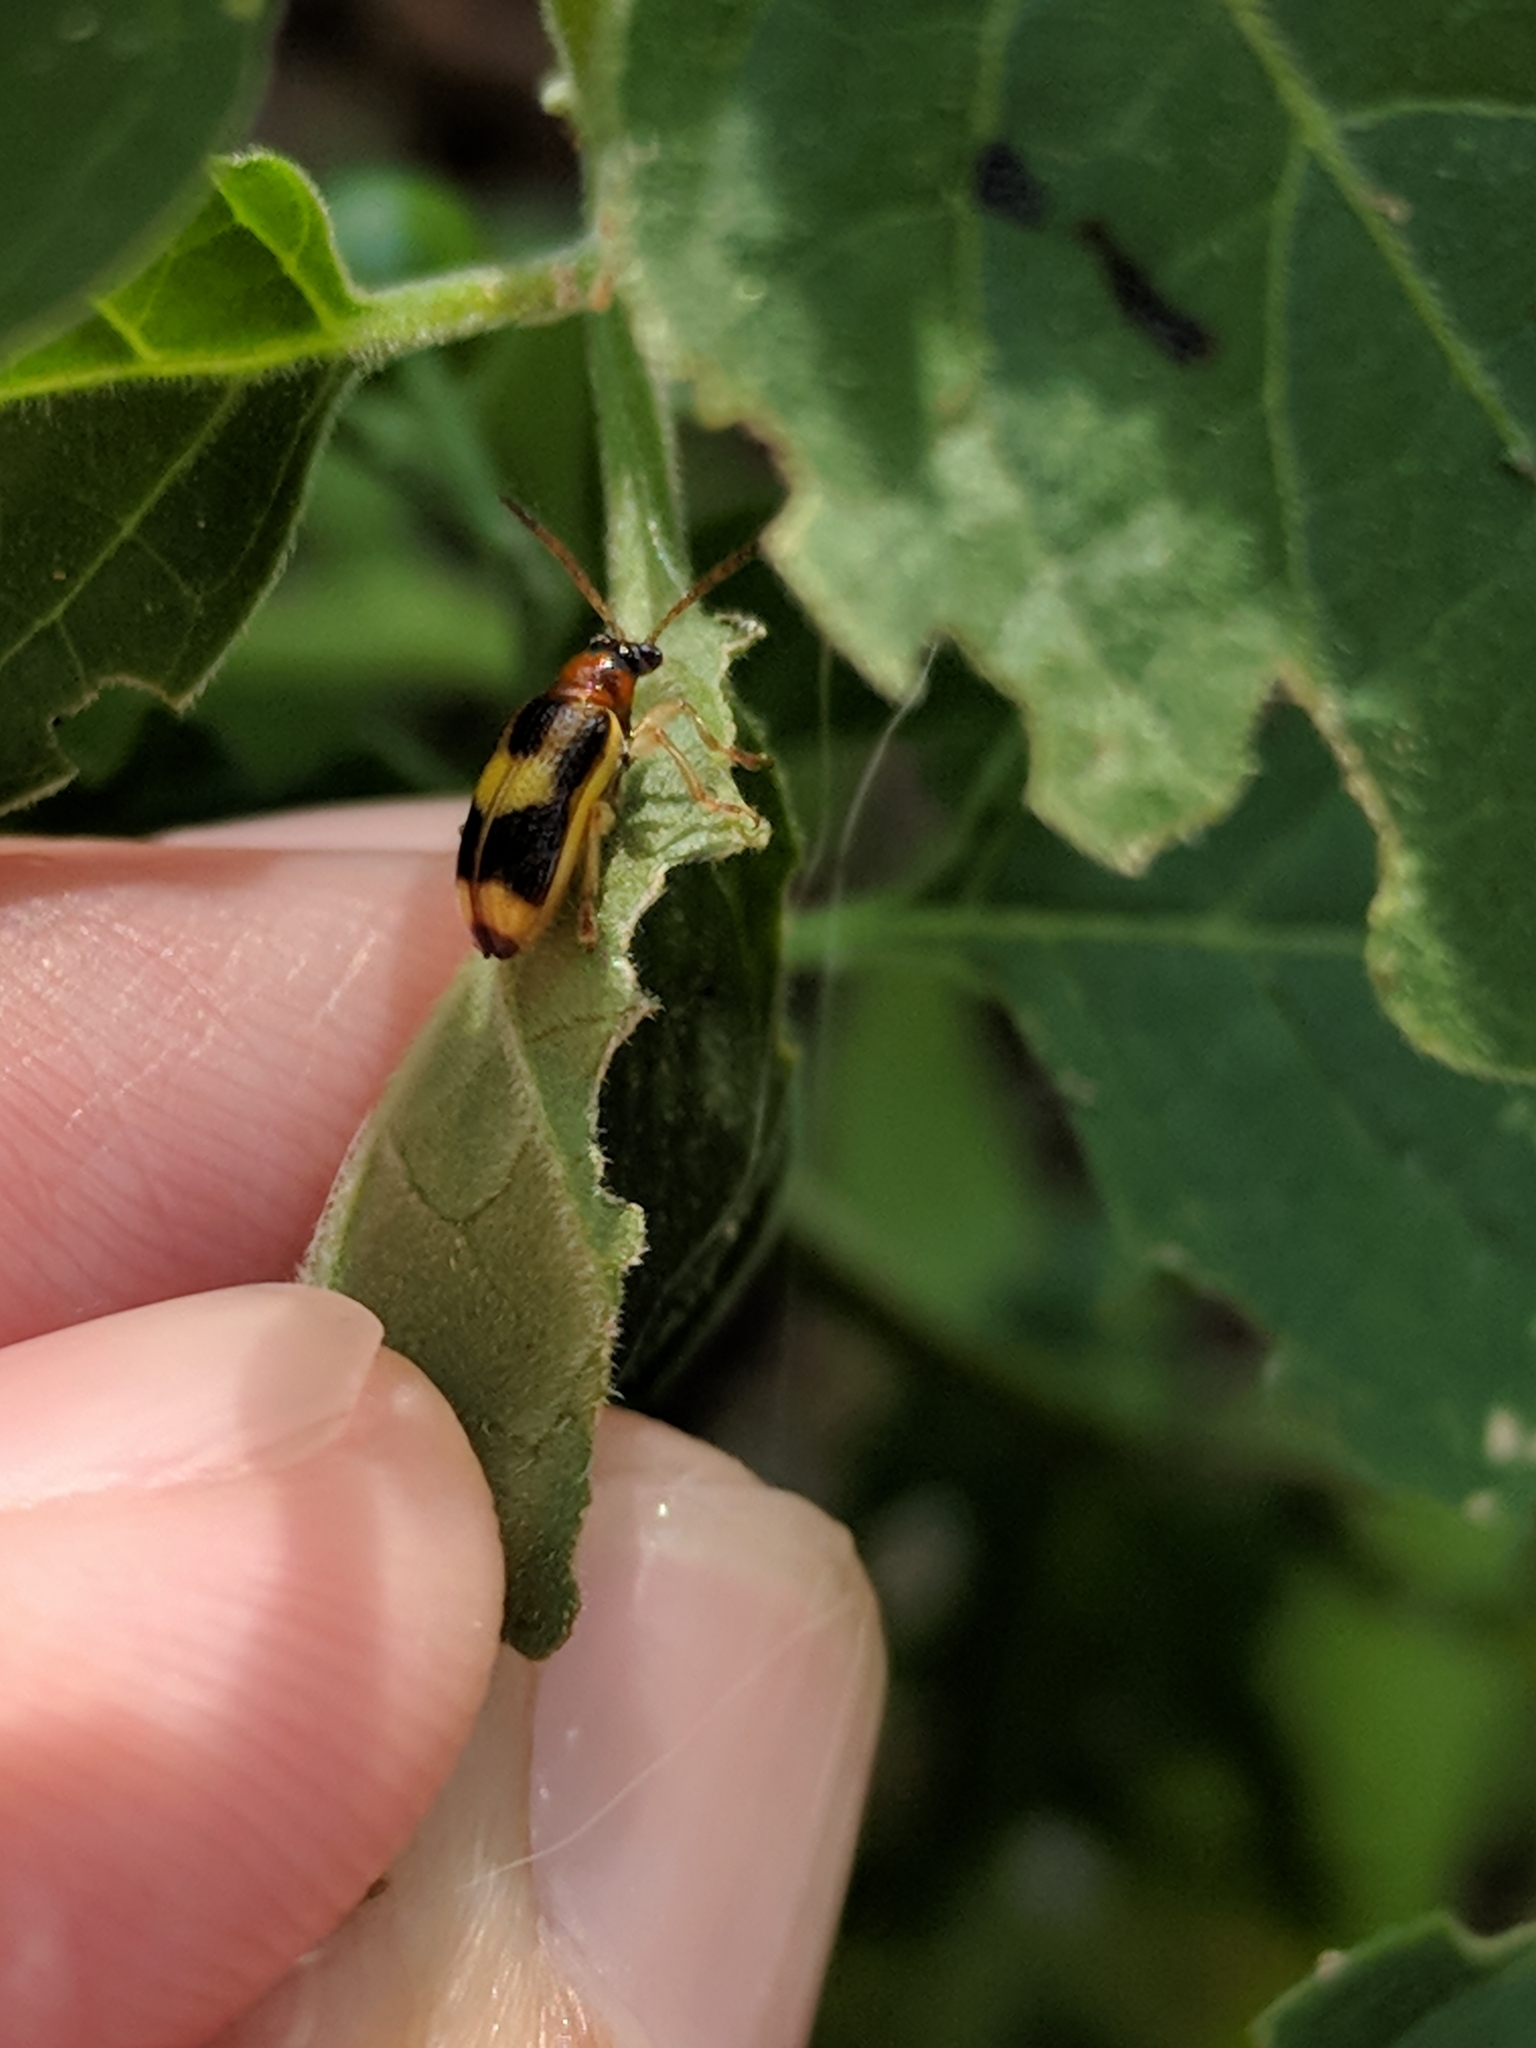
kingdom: Animalia
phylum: Arthropoda
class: Insecta
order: Coleoptera
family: Chrysomelidae
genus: Lema
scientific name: Lema opulenta
